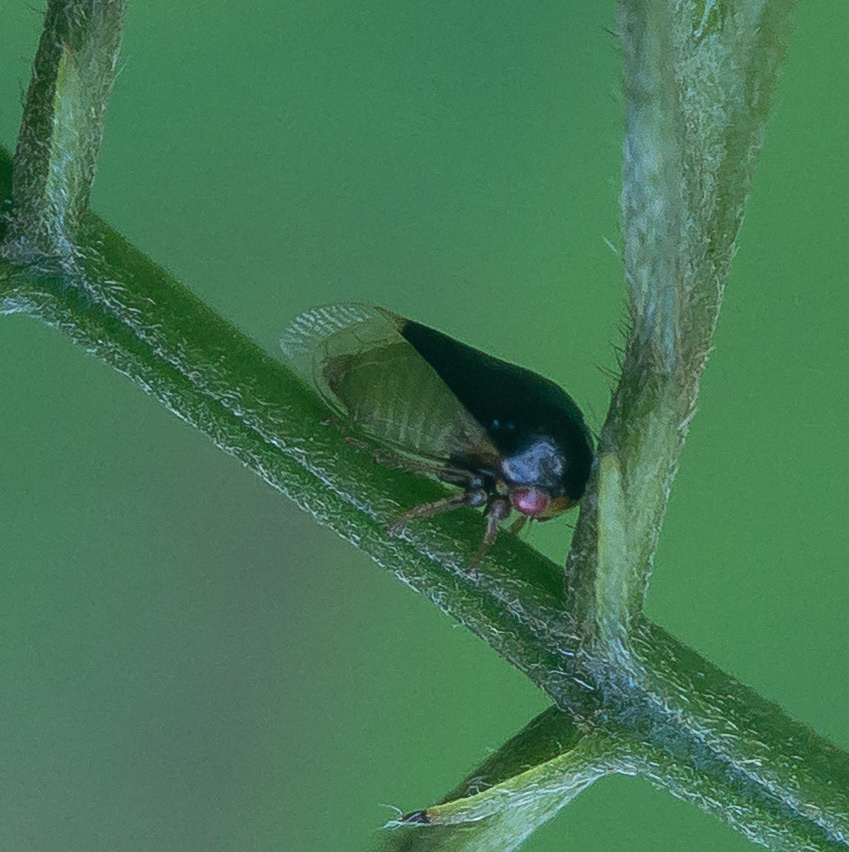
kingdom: Animalia
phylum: Arthropoda
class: Insecta
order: Hemiptera
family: Membracidae
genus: Micrutalis
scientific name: Micrutalis calva
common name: Honeylocust treehopper
